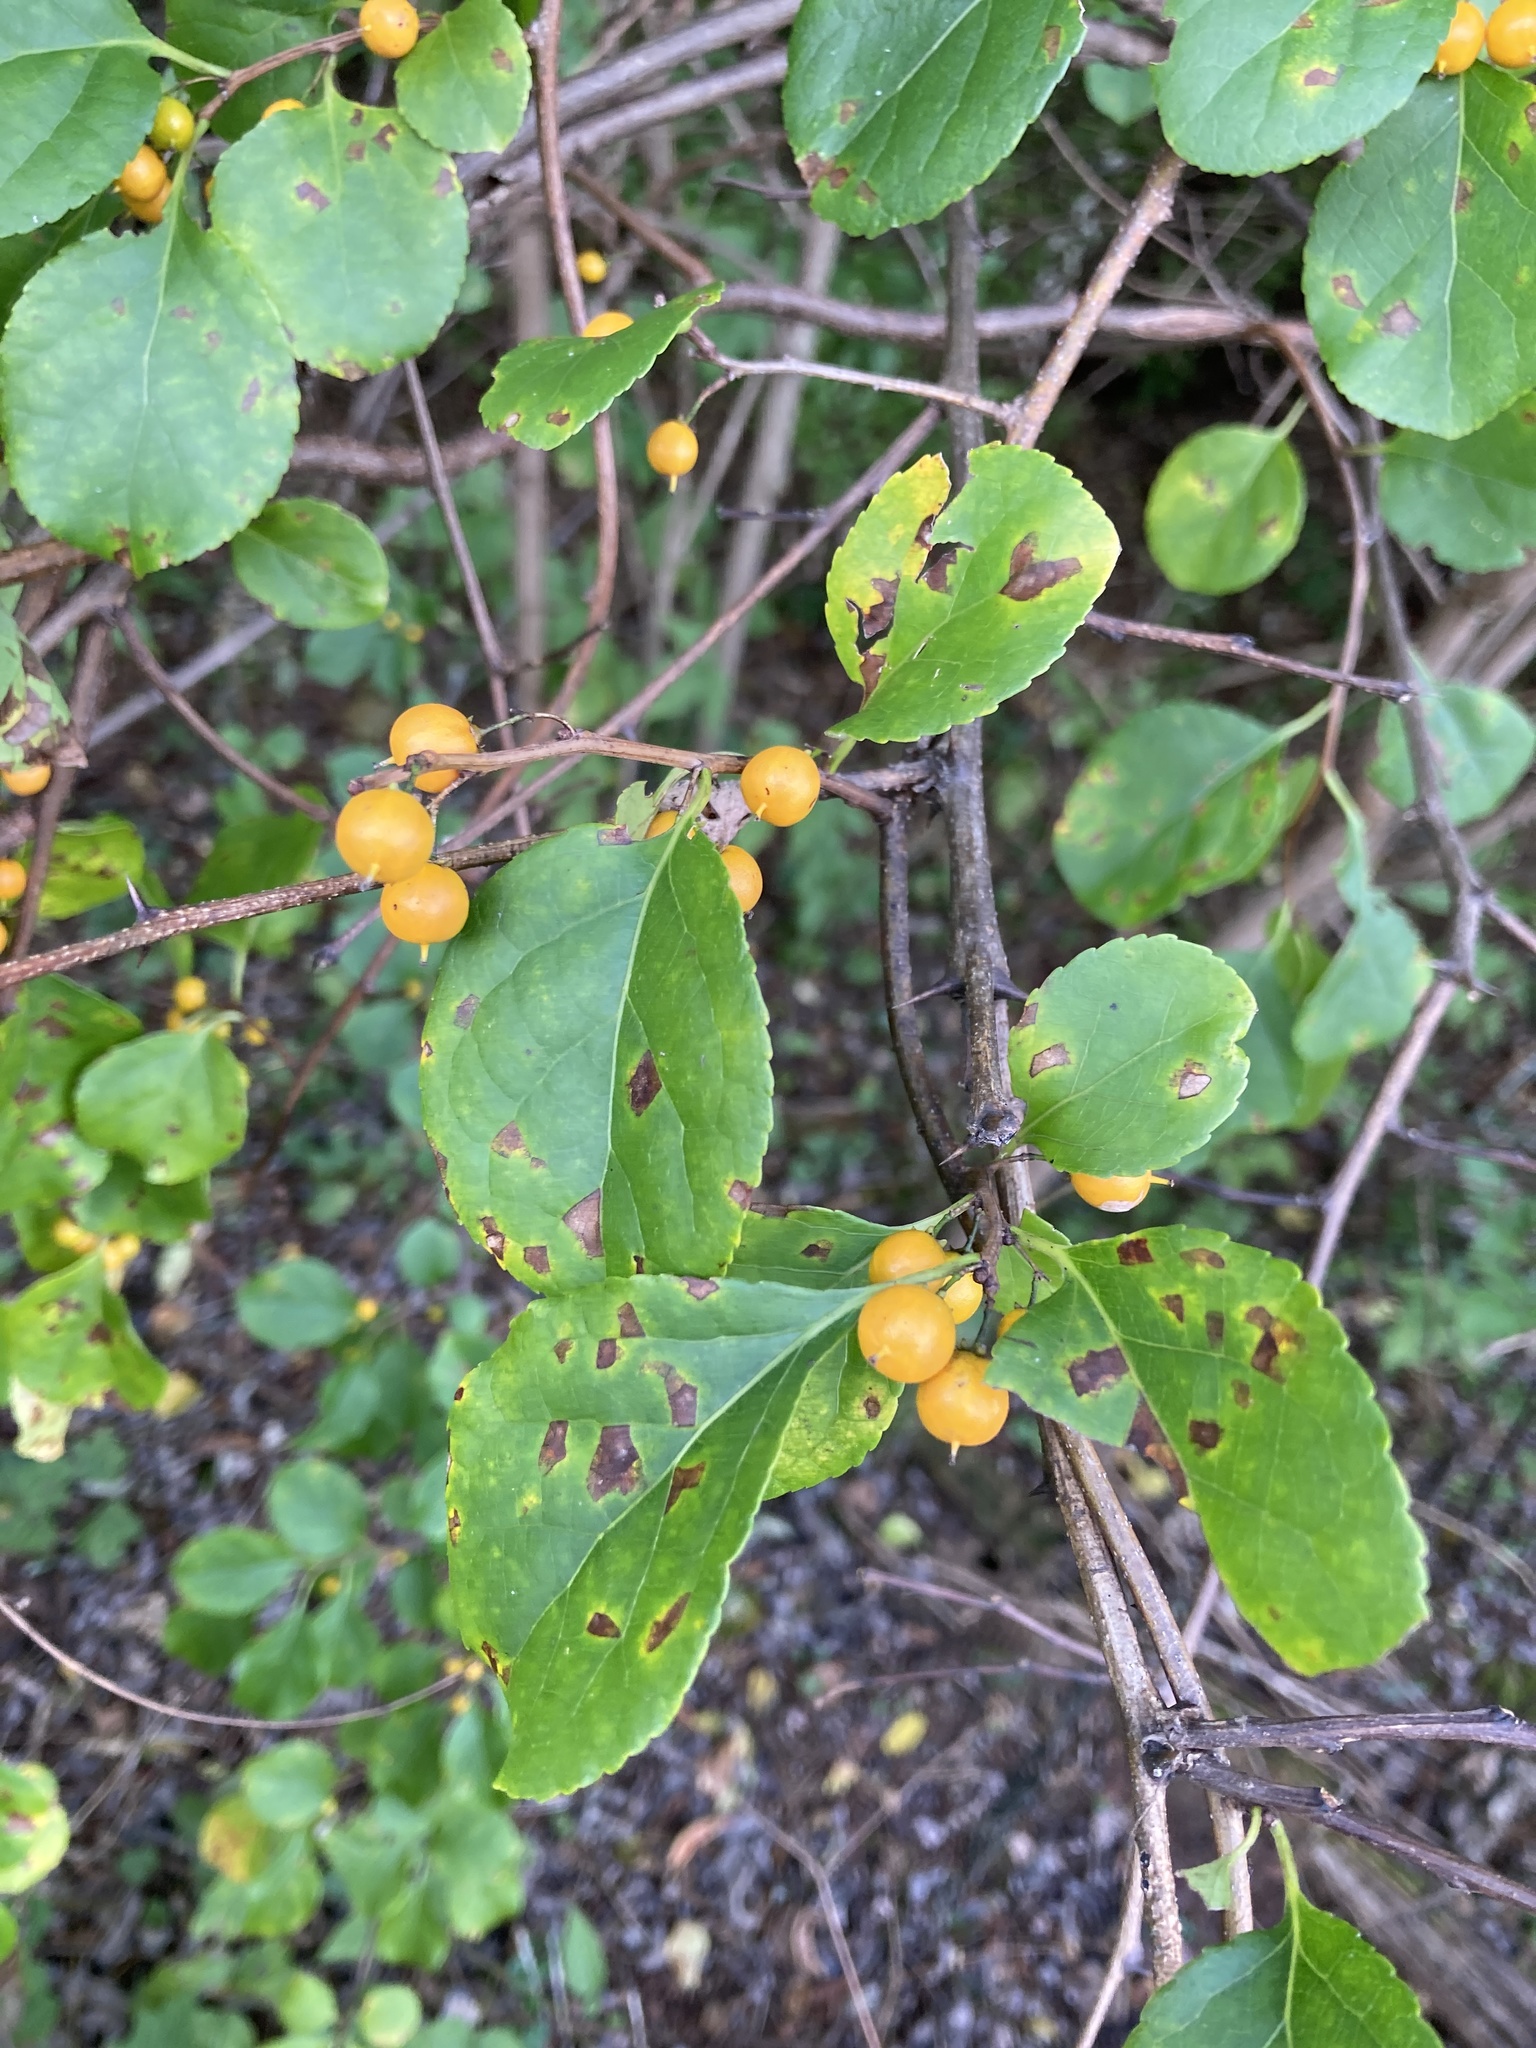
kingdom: Plantae
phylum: Tracheophyta
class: Magnoliopsida
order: Celastrales
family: Celastraceae
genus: Celastrus
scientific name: Celastrus orbiculatus
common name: Oriental bittersweet
